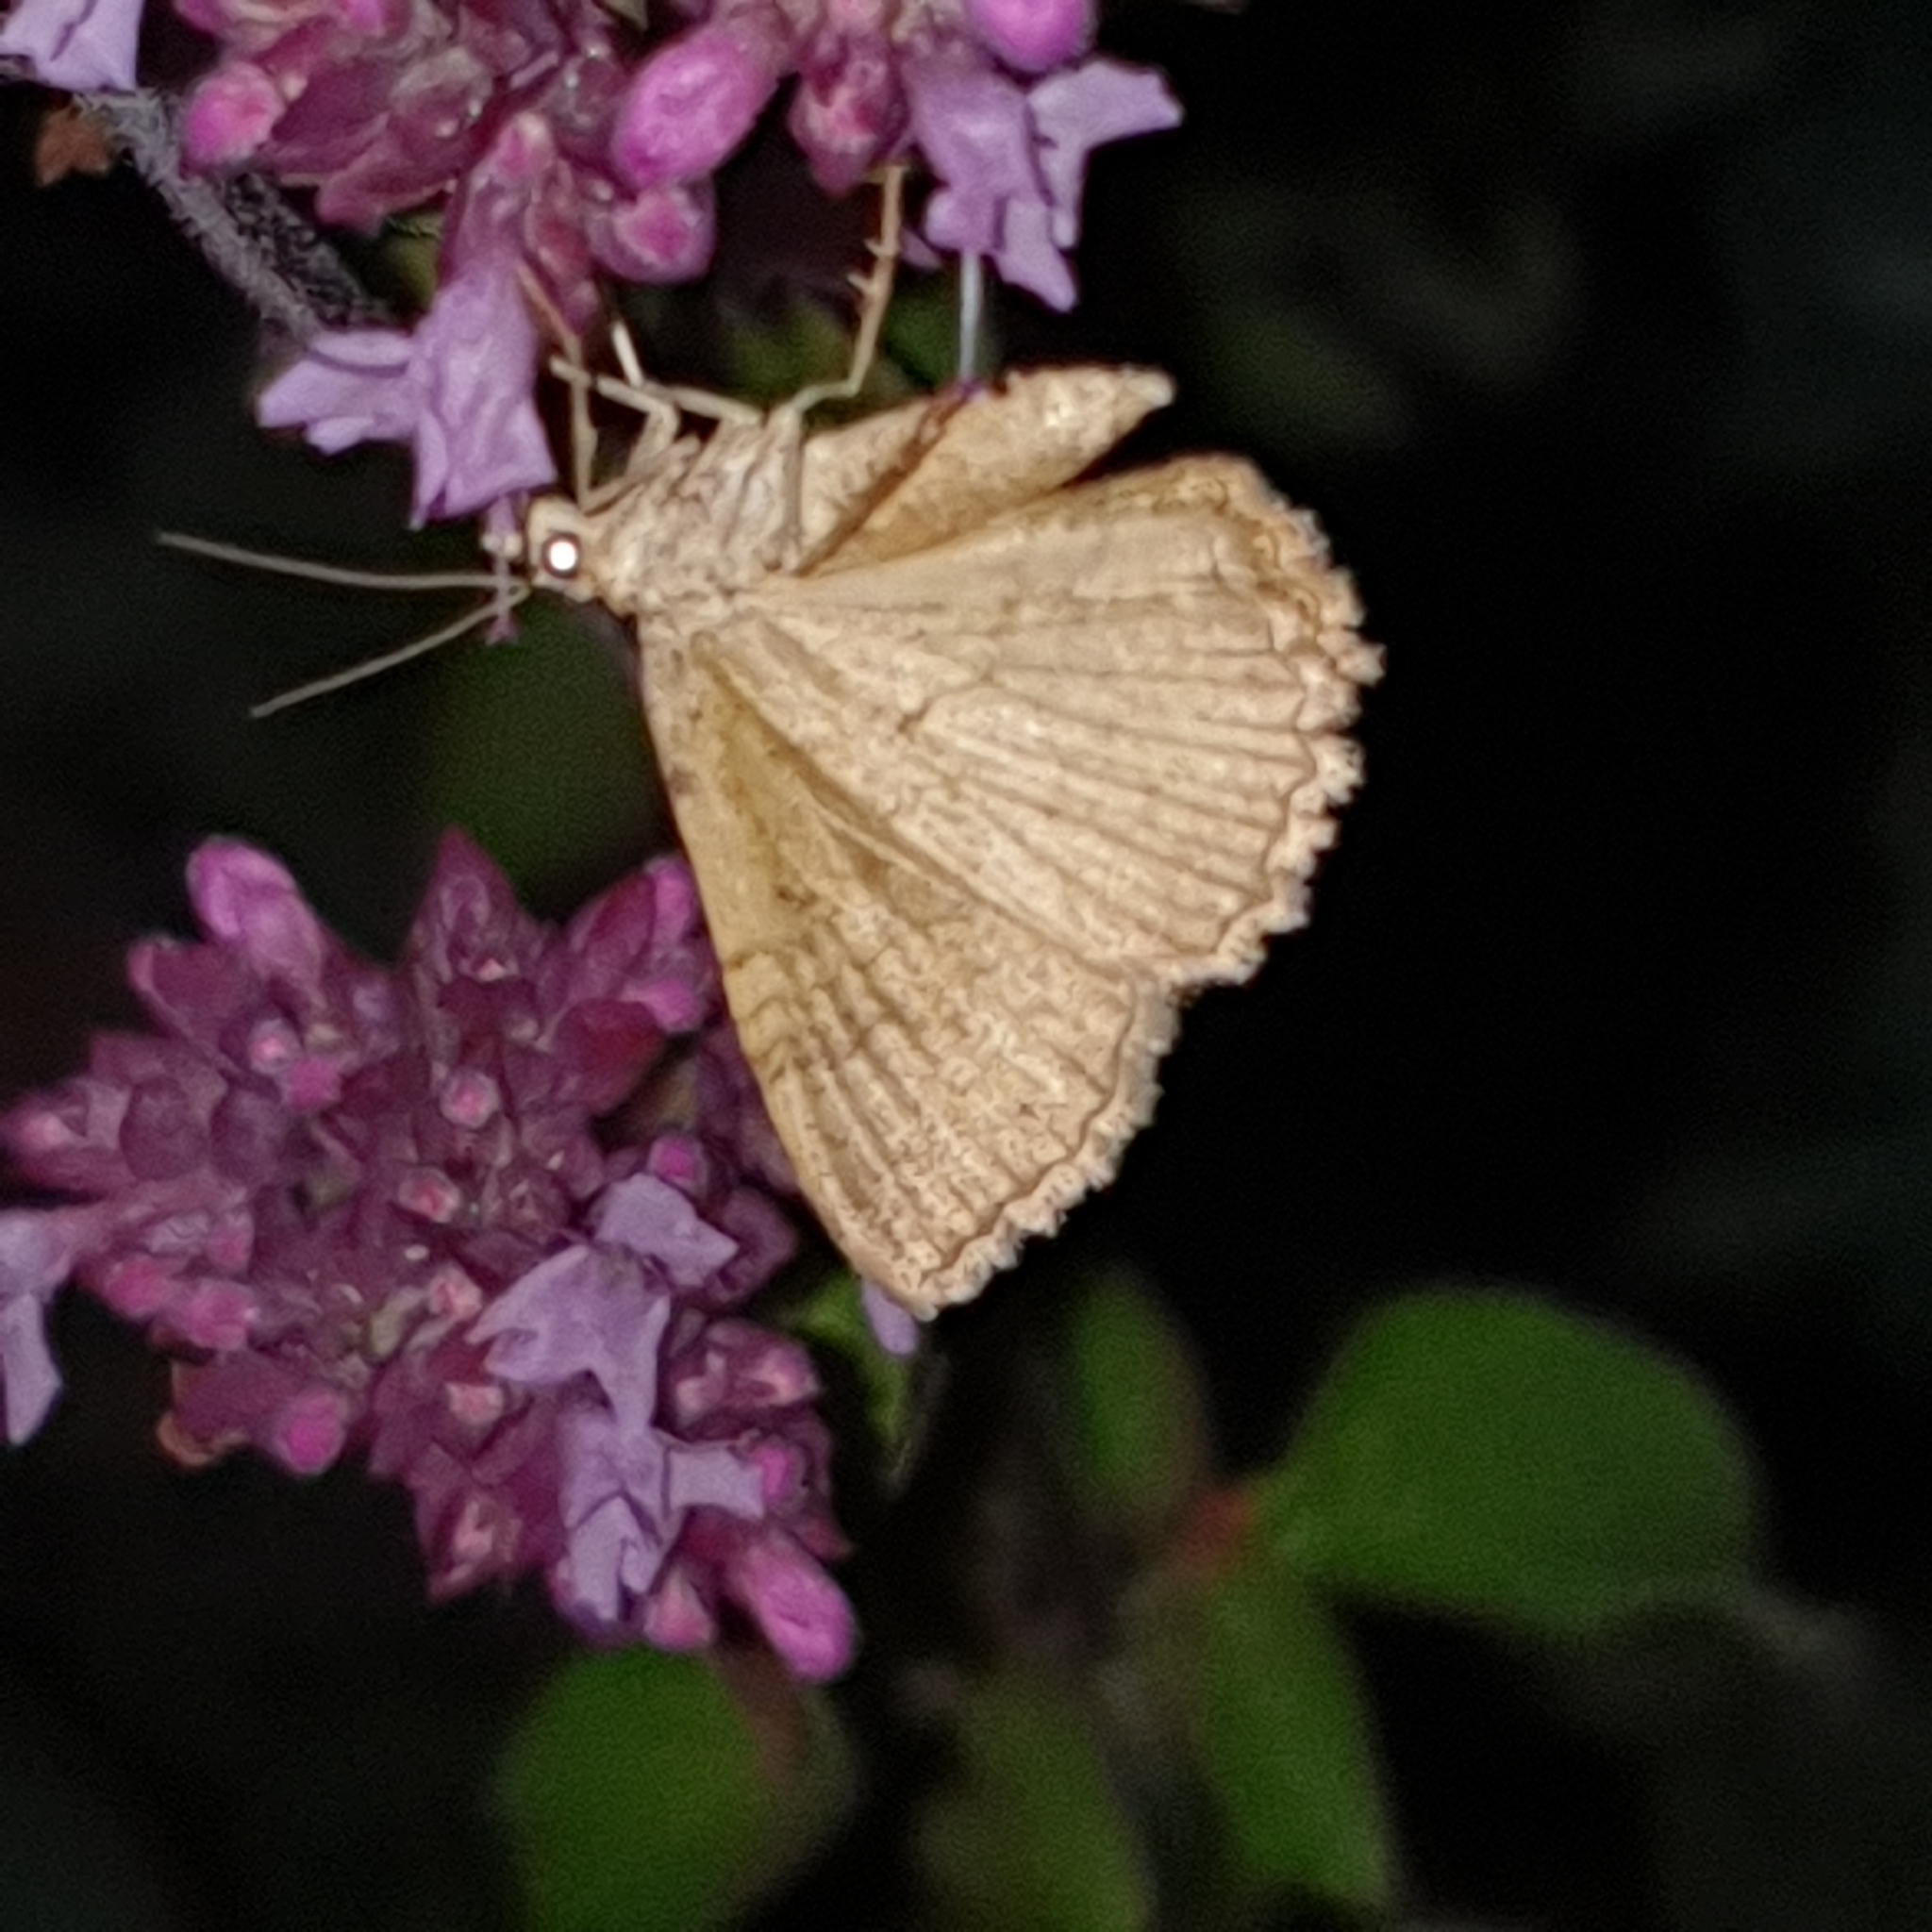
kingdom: Animalia
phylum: Arthropoda
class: Insecta
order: Lepidoptera
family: Geometridae
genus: Camptogramma
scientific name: Camptogramma bilineata
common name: Yellow shell
